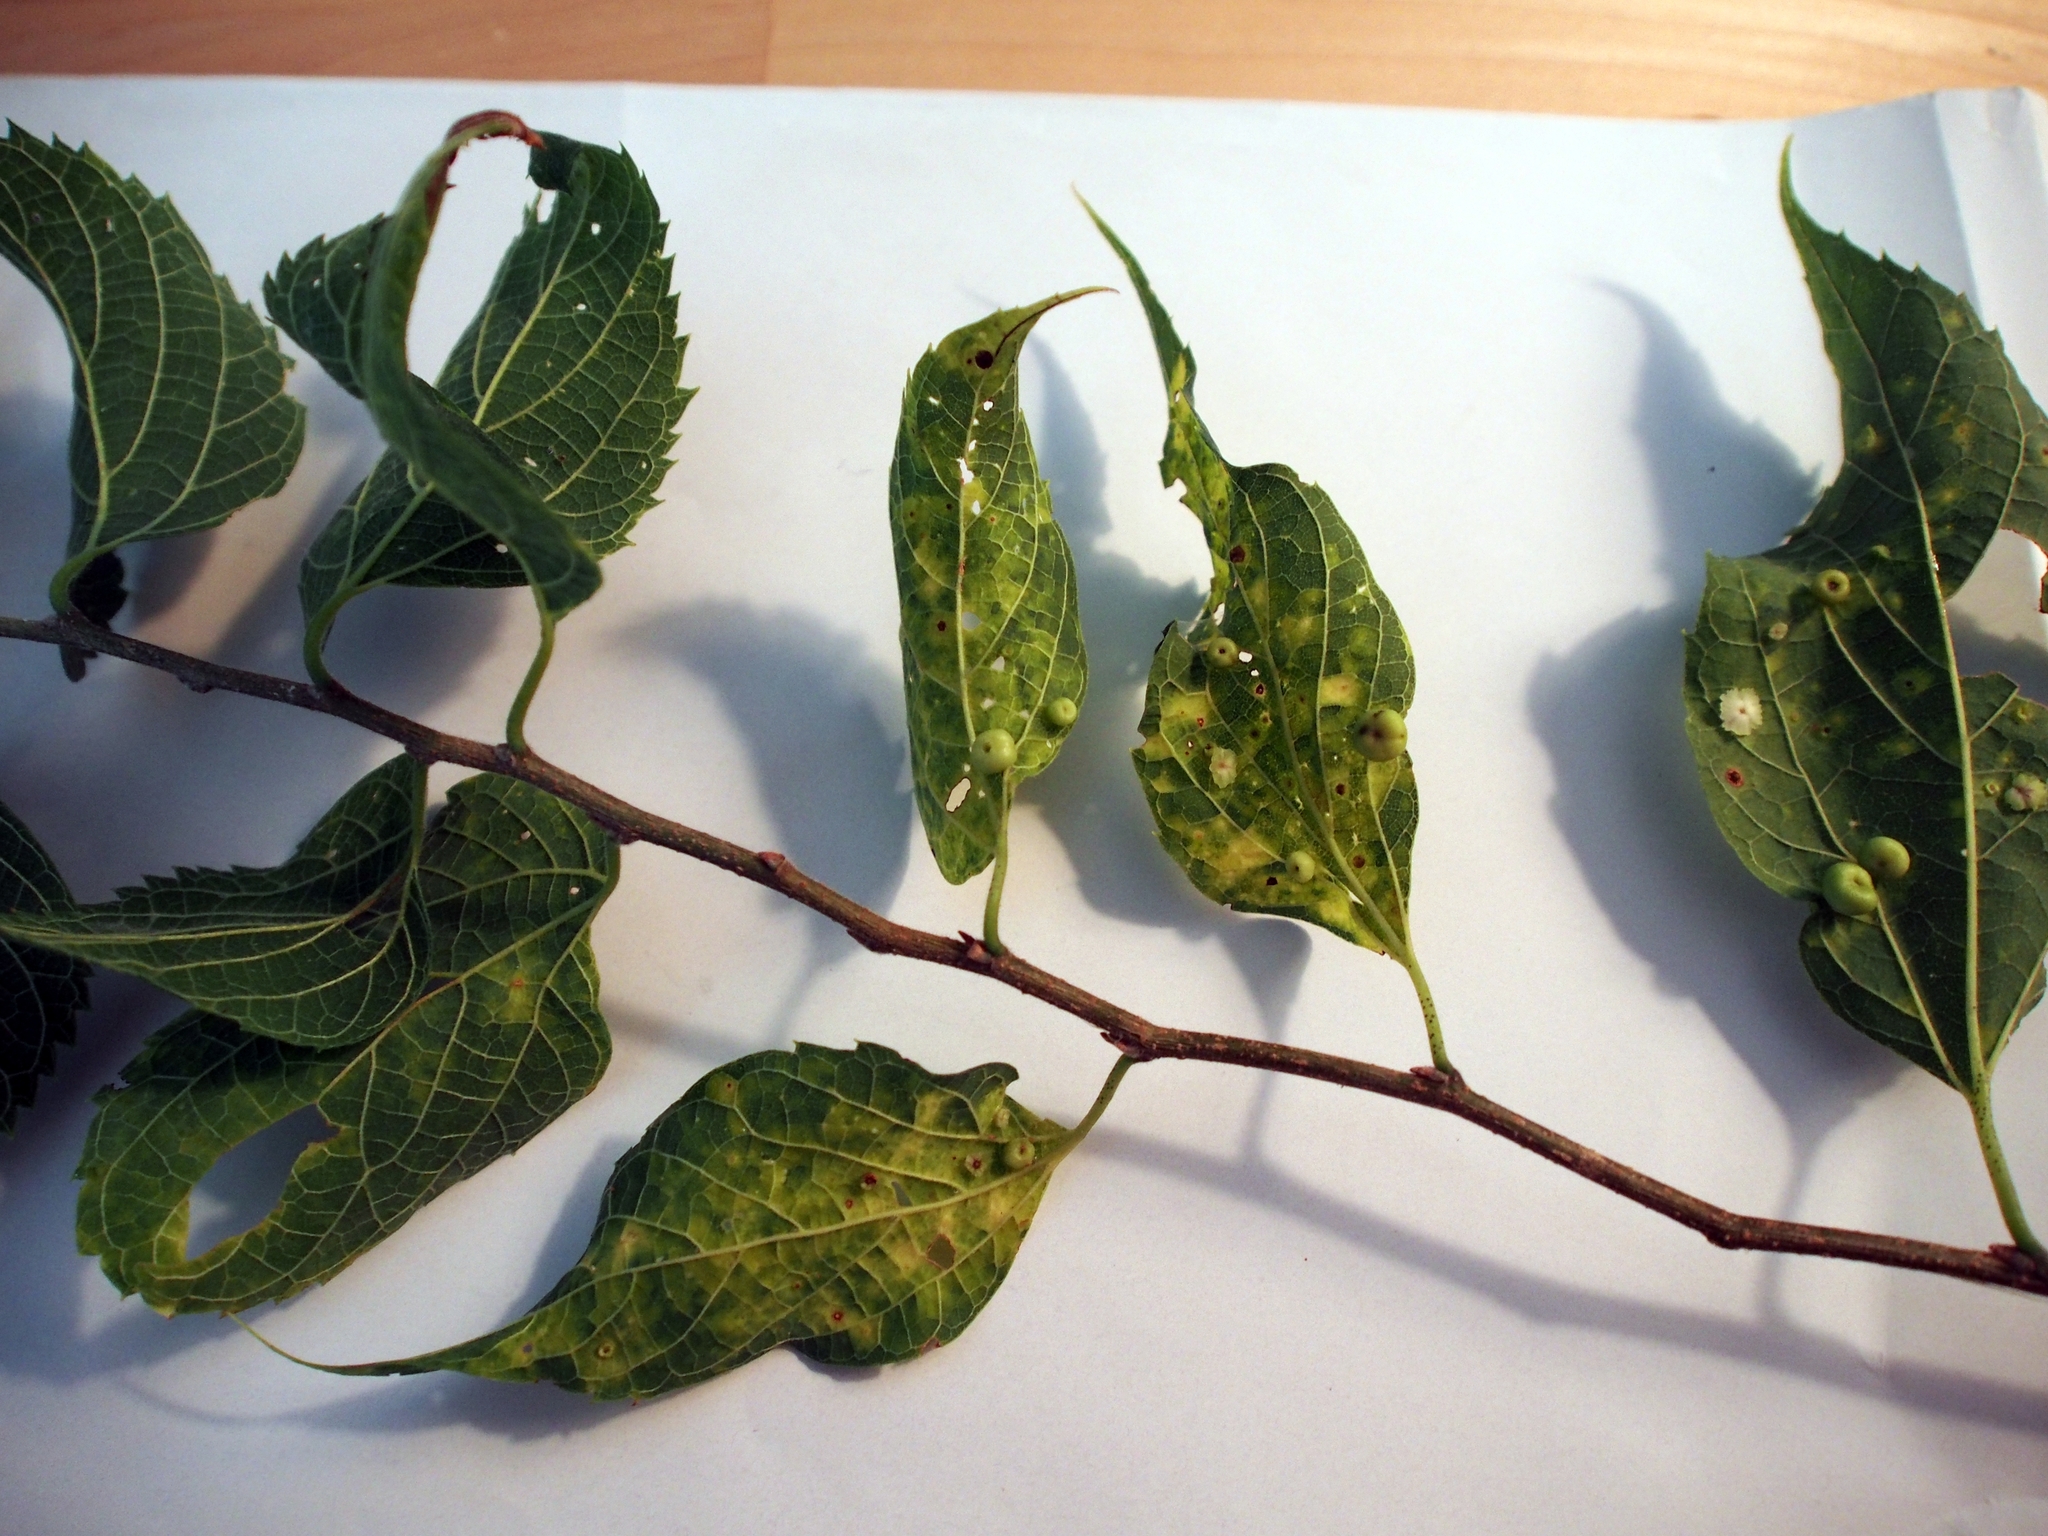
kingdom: Plantae
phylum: Tracheophyta
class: Magnoliopsida
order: Rosales
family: Cannabaceae
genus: Celtis
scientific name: Celtis occidentalis
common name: Common hackberry
